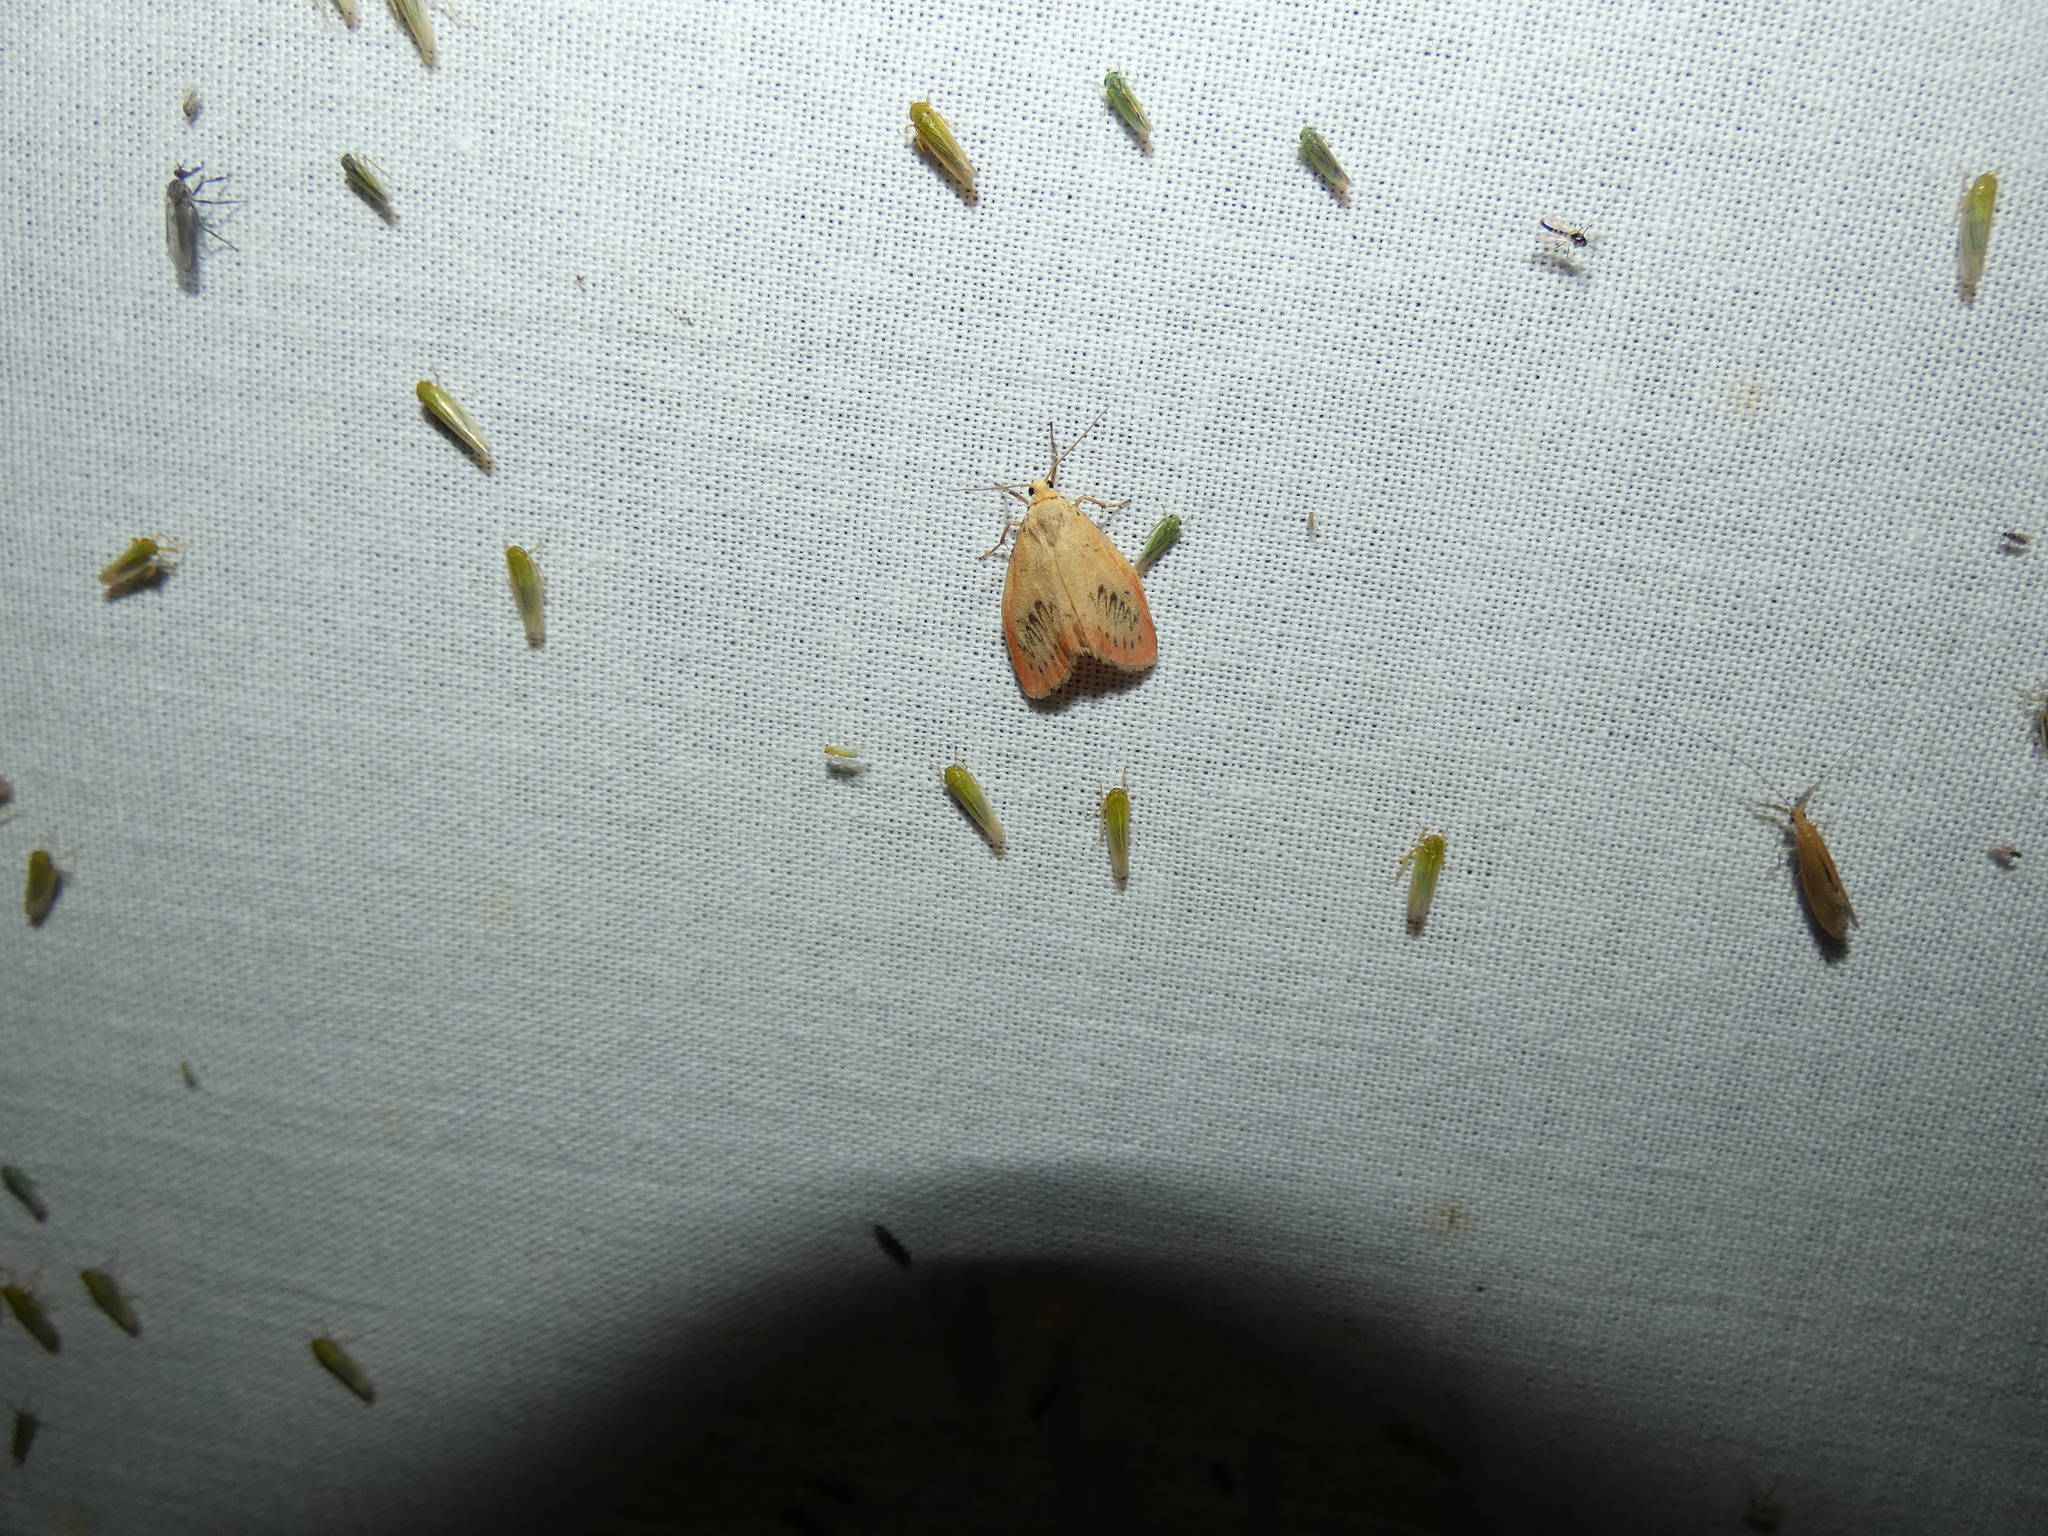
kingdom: Animalia
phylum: Arthropoda
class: Insecta
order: Lepidoptera
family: Erebidae
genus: Miltochrista
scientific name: Miltochrista miniata
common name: Rosy footman
